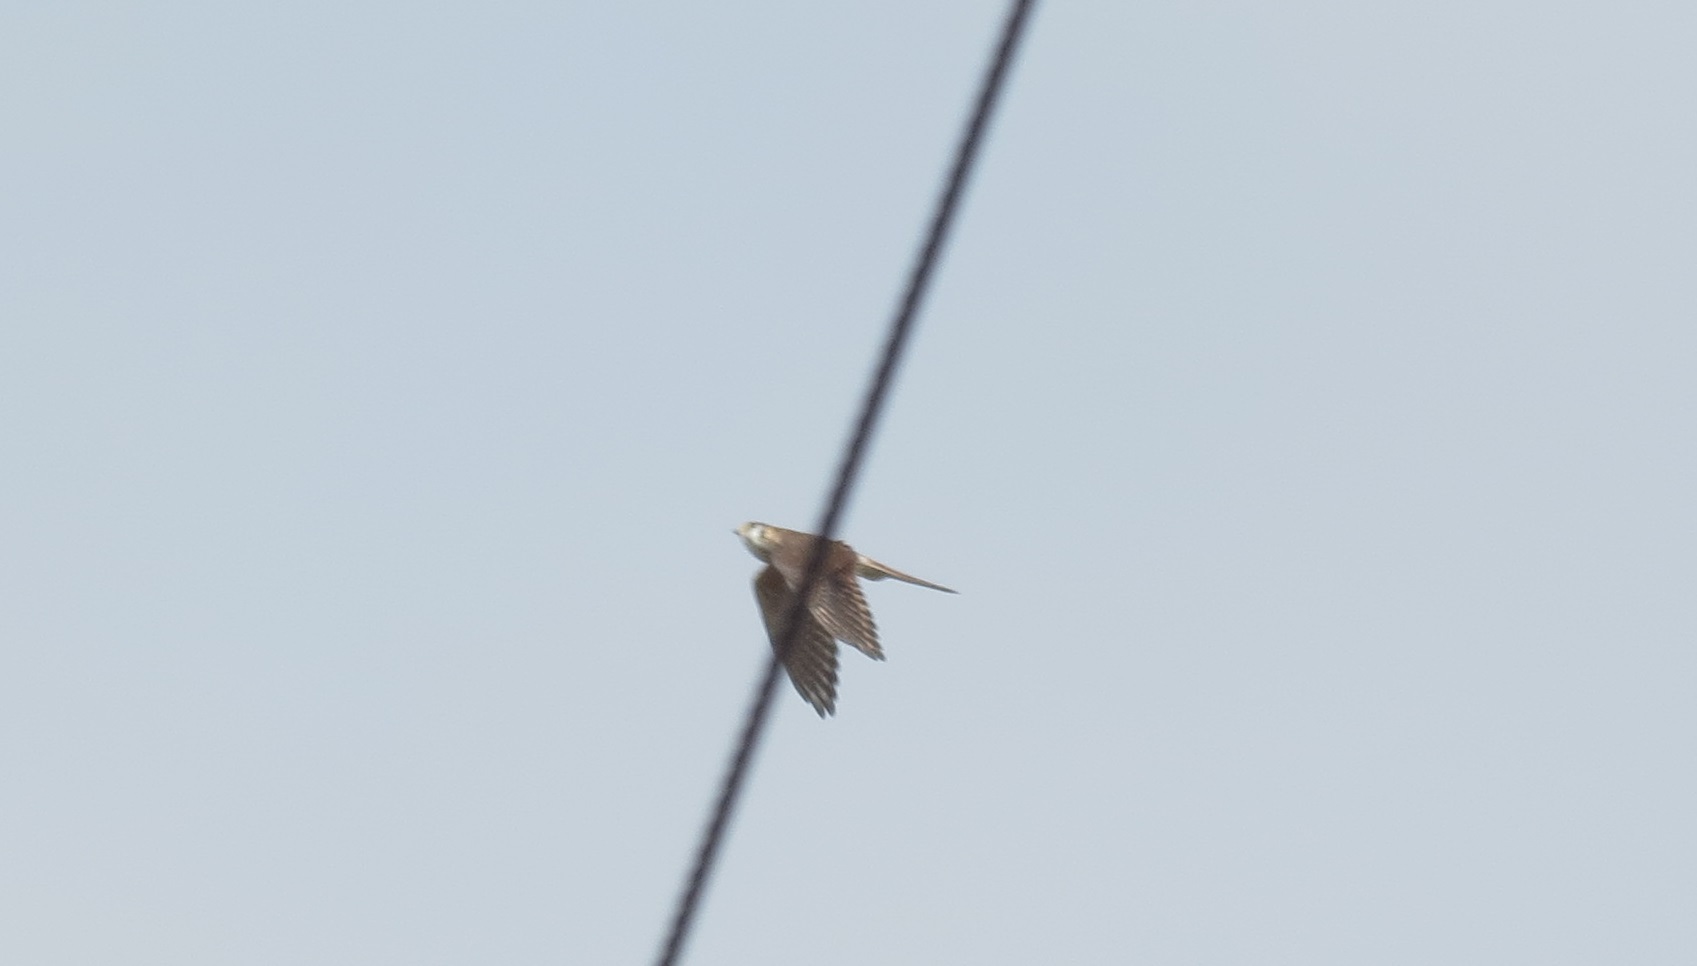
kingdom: Animalia
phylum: Chordata
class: Aves
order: Falconiformes
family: Falconidae
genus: Falco
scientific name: Falco sparverius
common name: American kestrel
